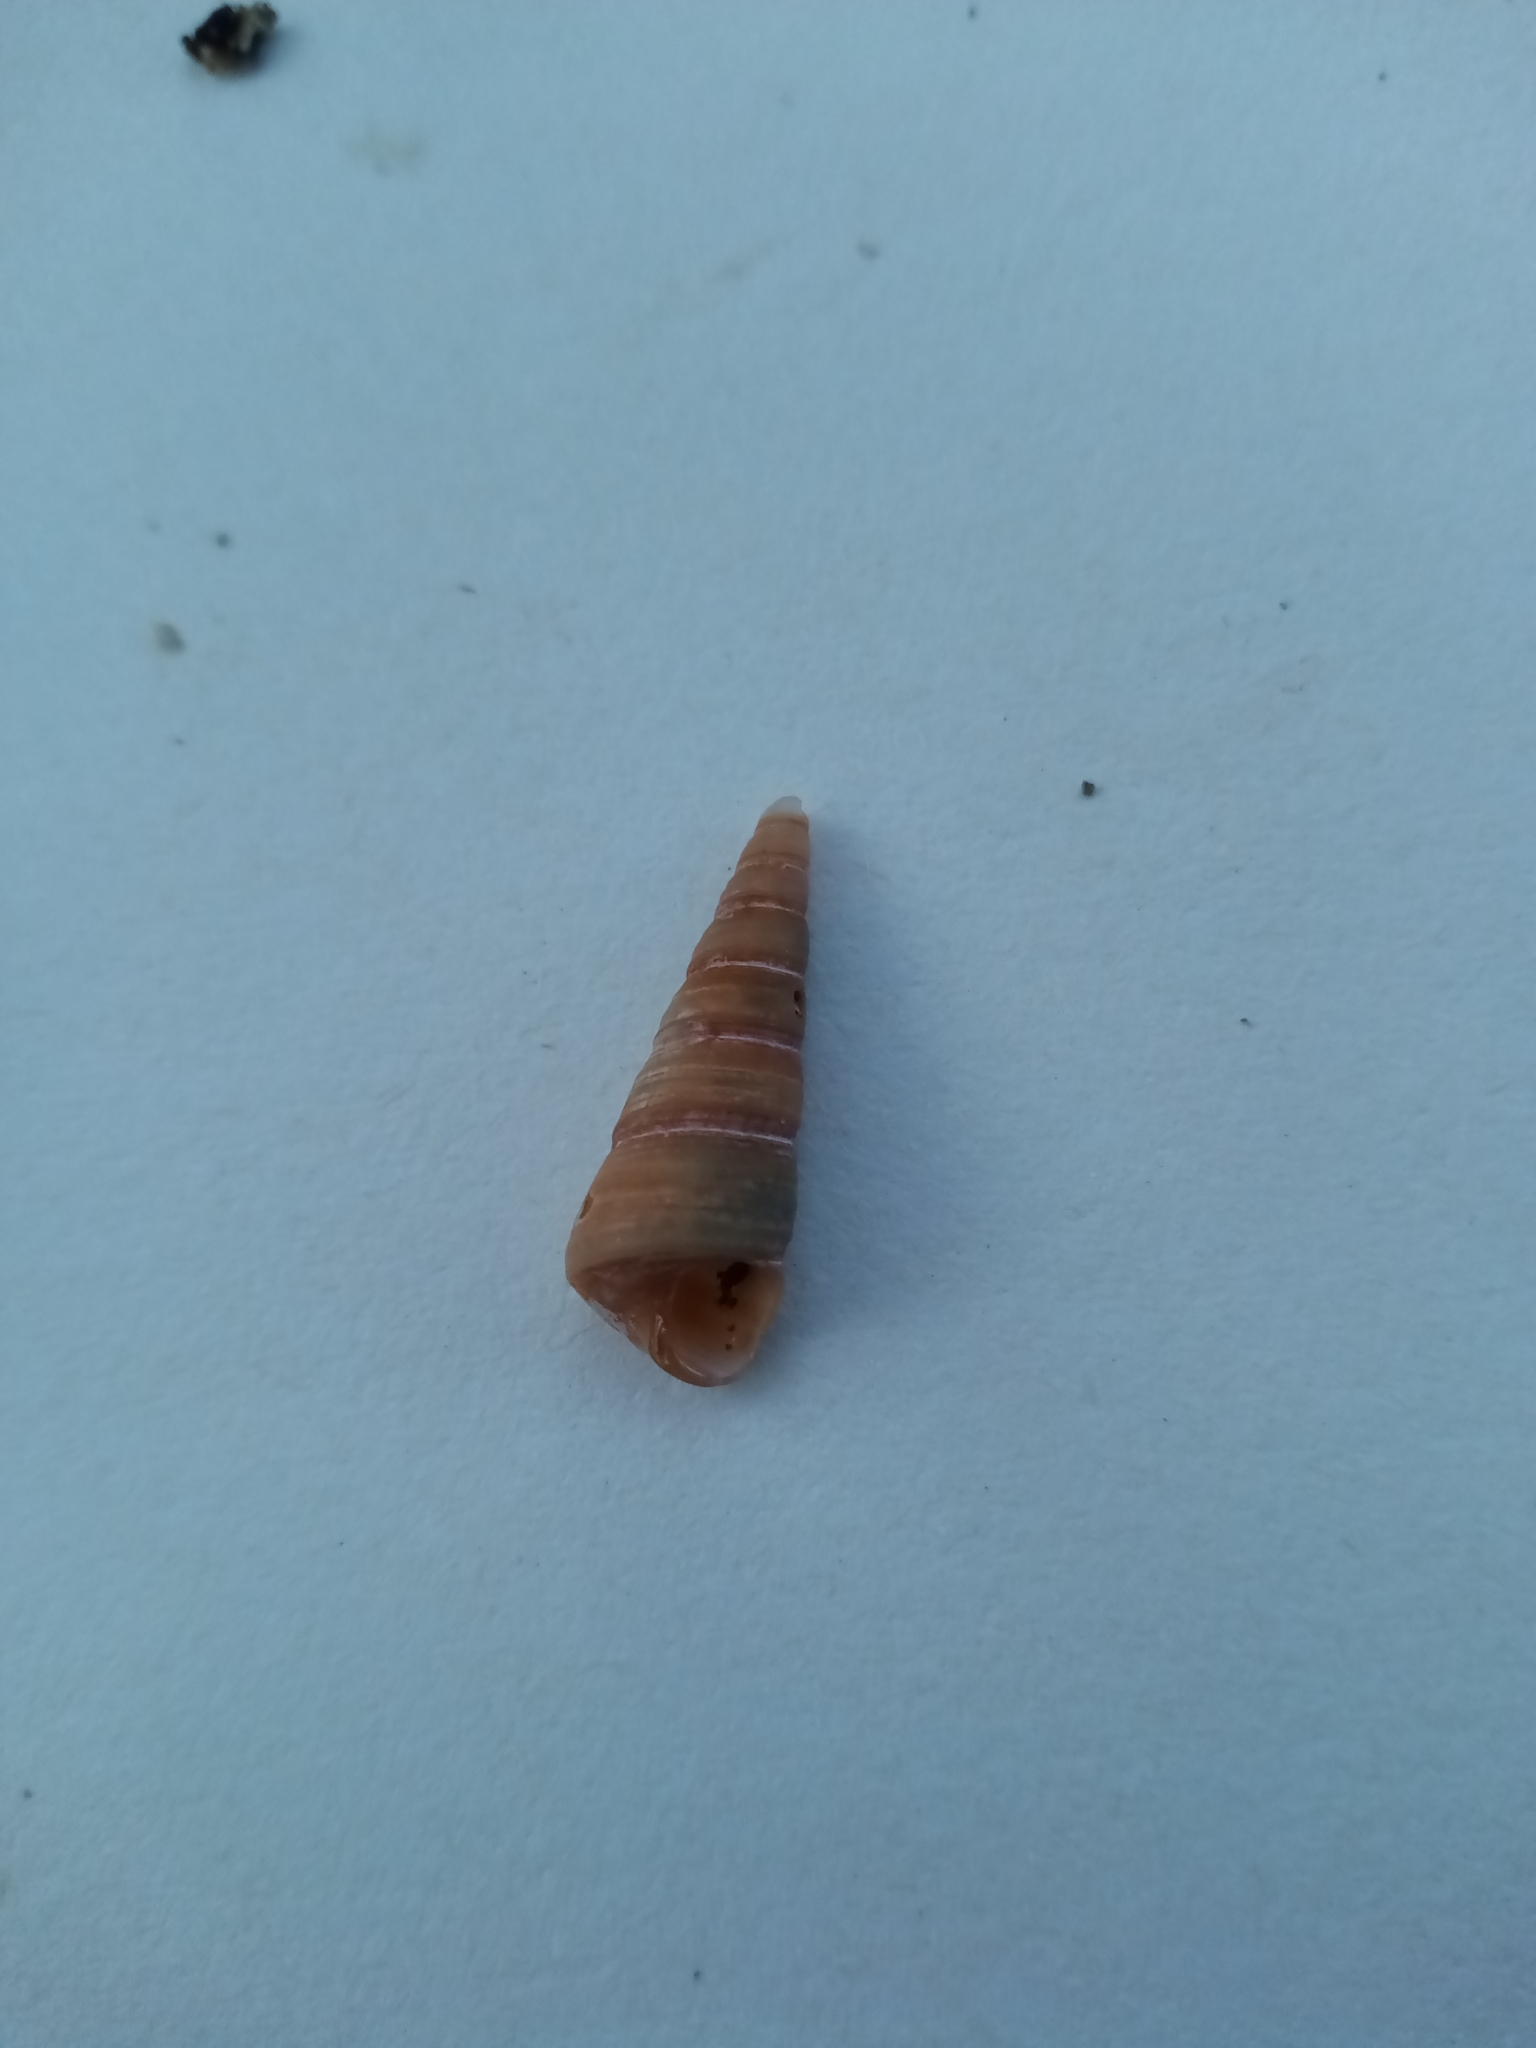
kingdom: Animalia
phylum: Mollusca
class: Gastropoda
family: Turritellidae
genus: Turritellinella
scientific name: Turritellinella tricarinata
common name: Auger shell
